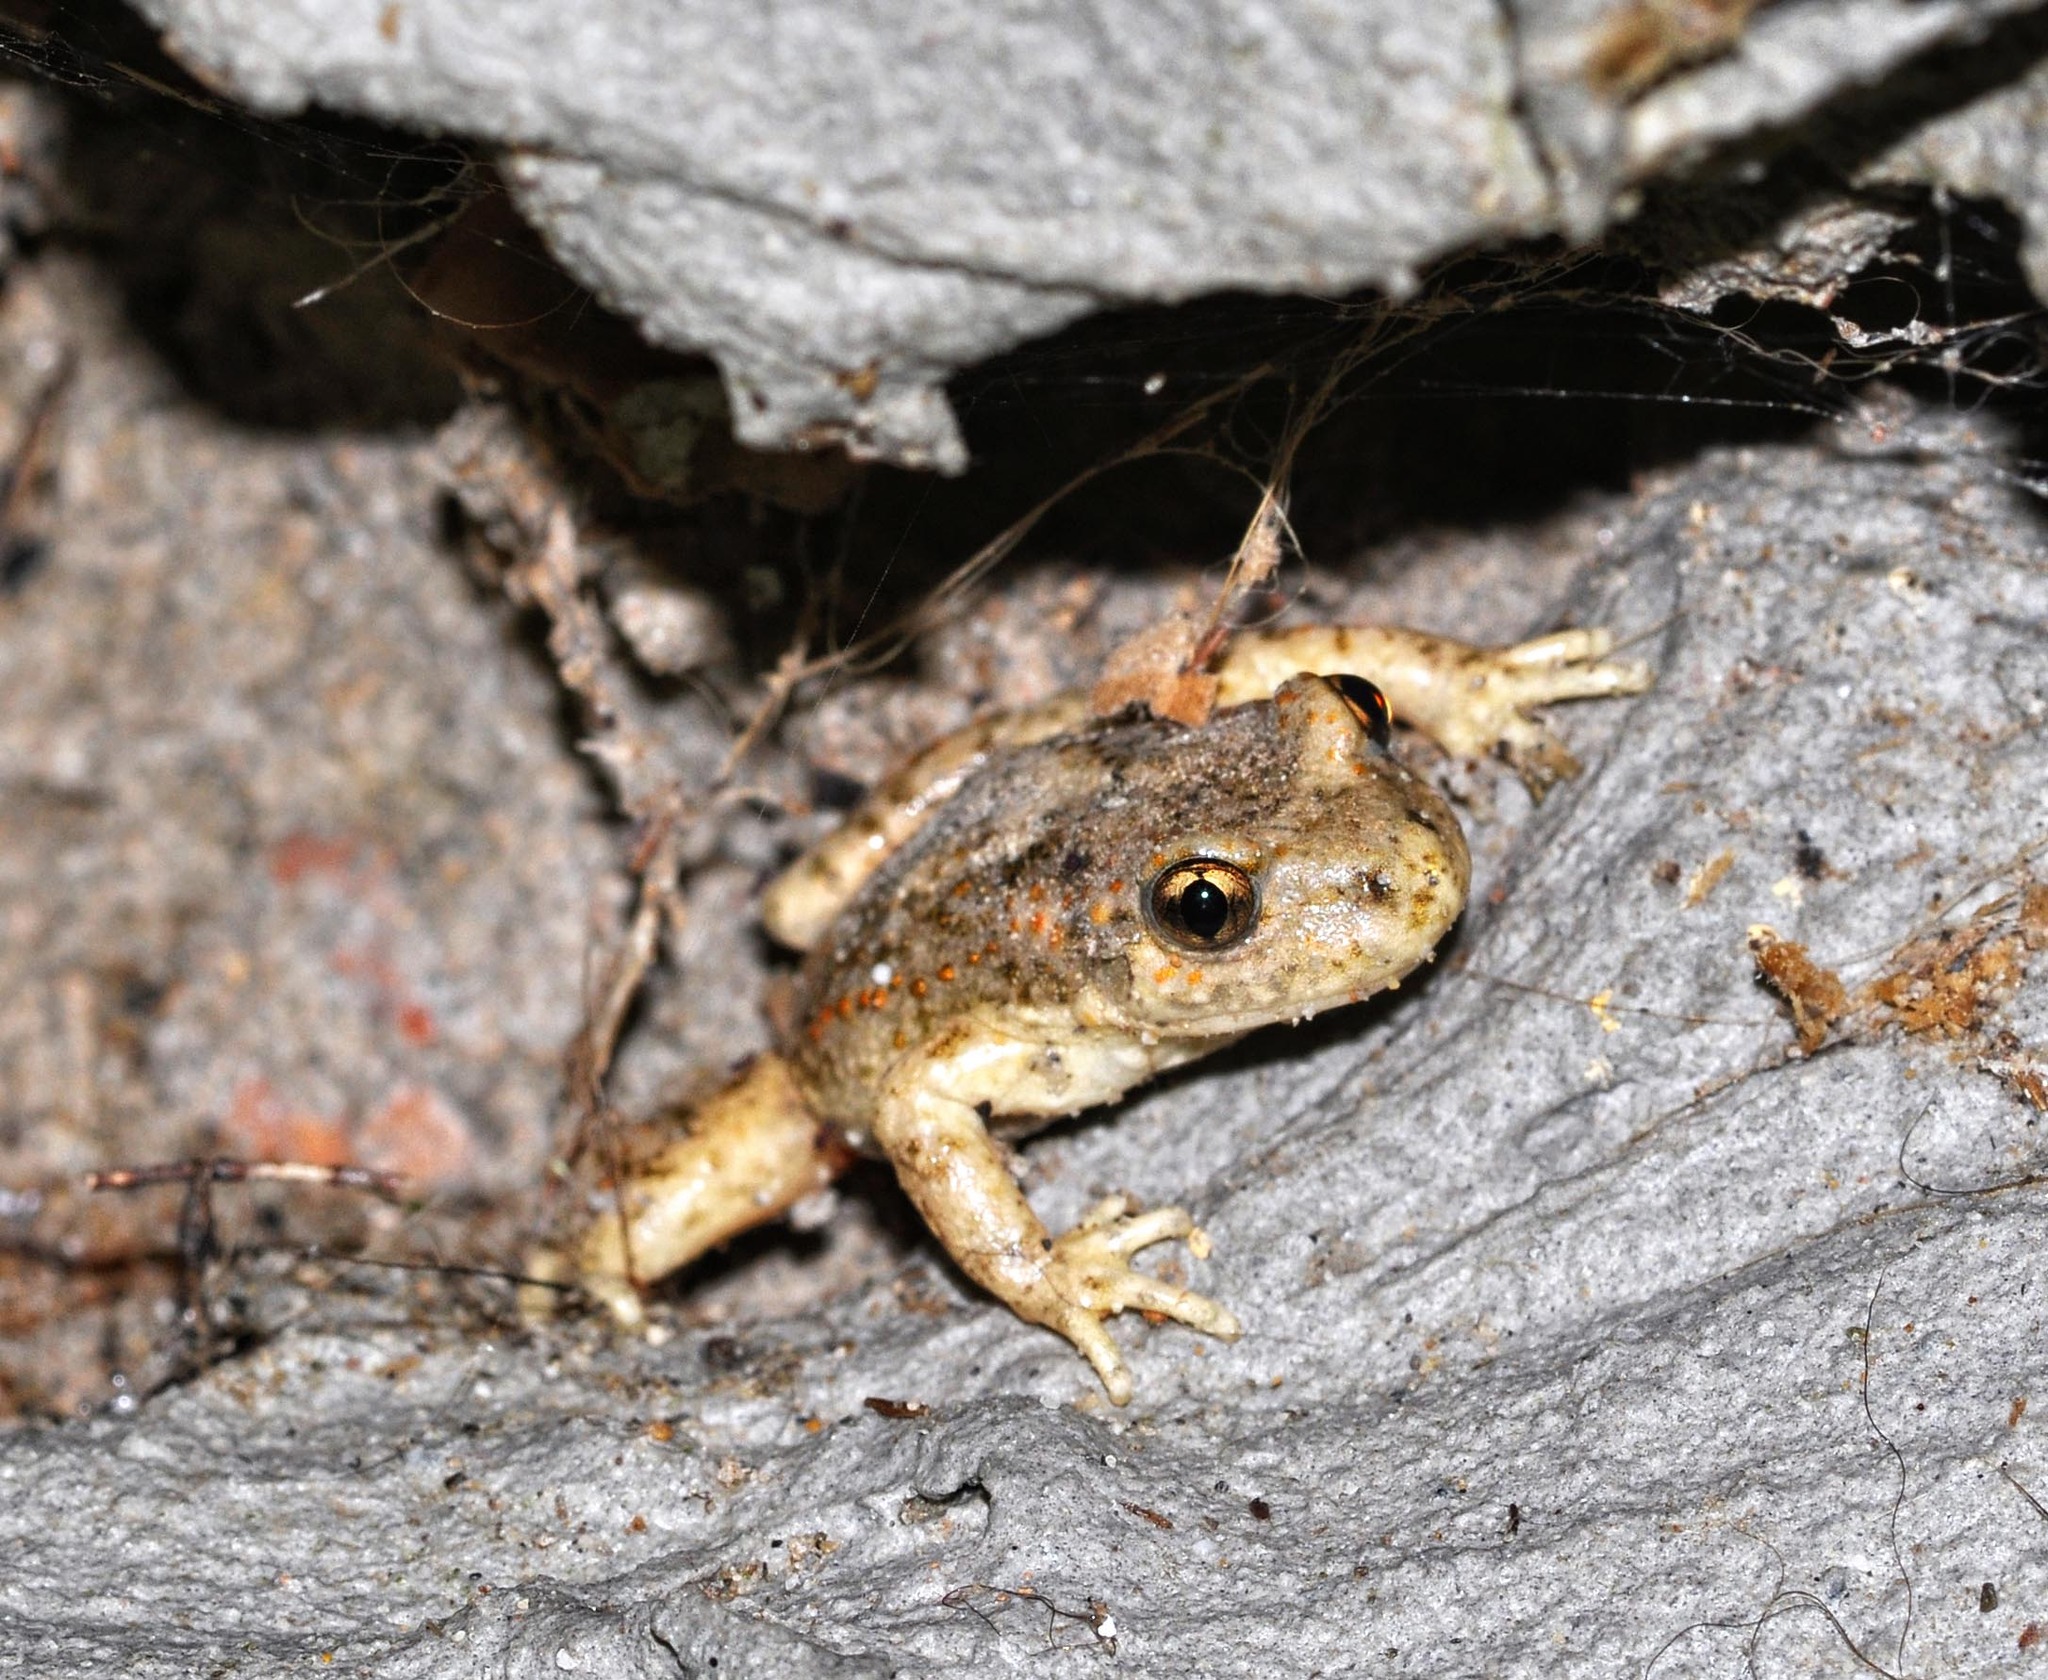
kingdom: Animalia
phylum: Chordata
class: Amphibia
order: Anura
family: Alytidae
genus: Alytes
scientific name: Alytes obstetricans
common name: Midwife toad
